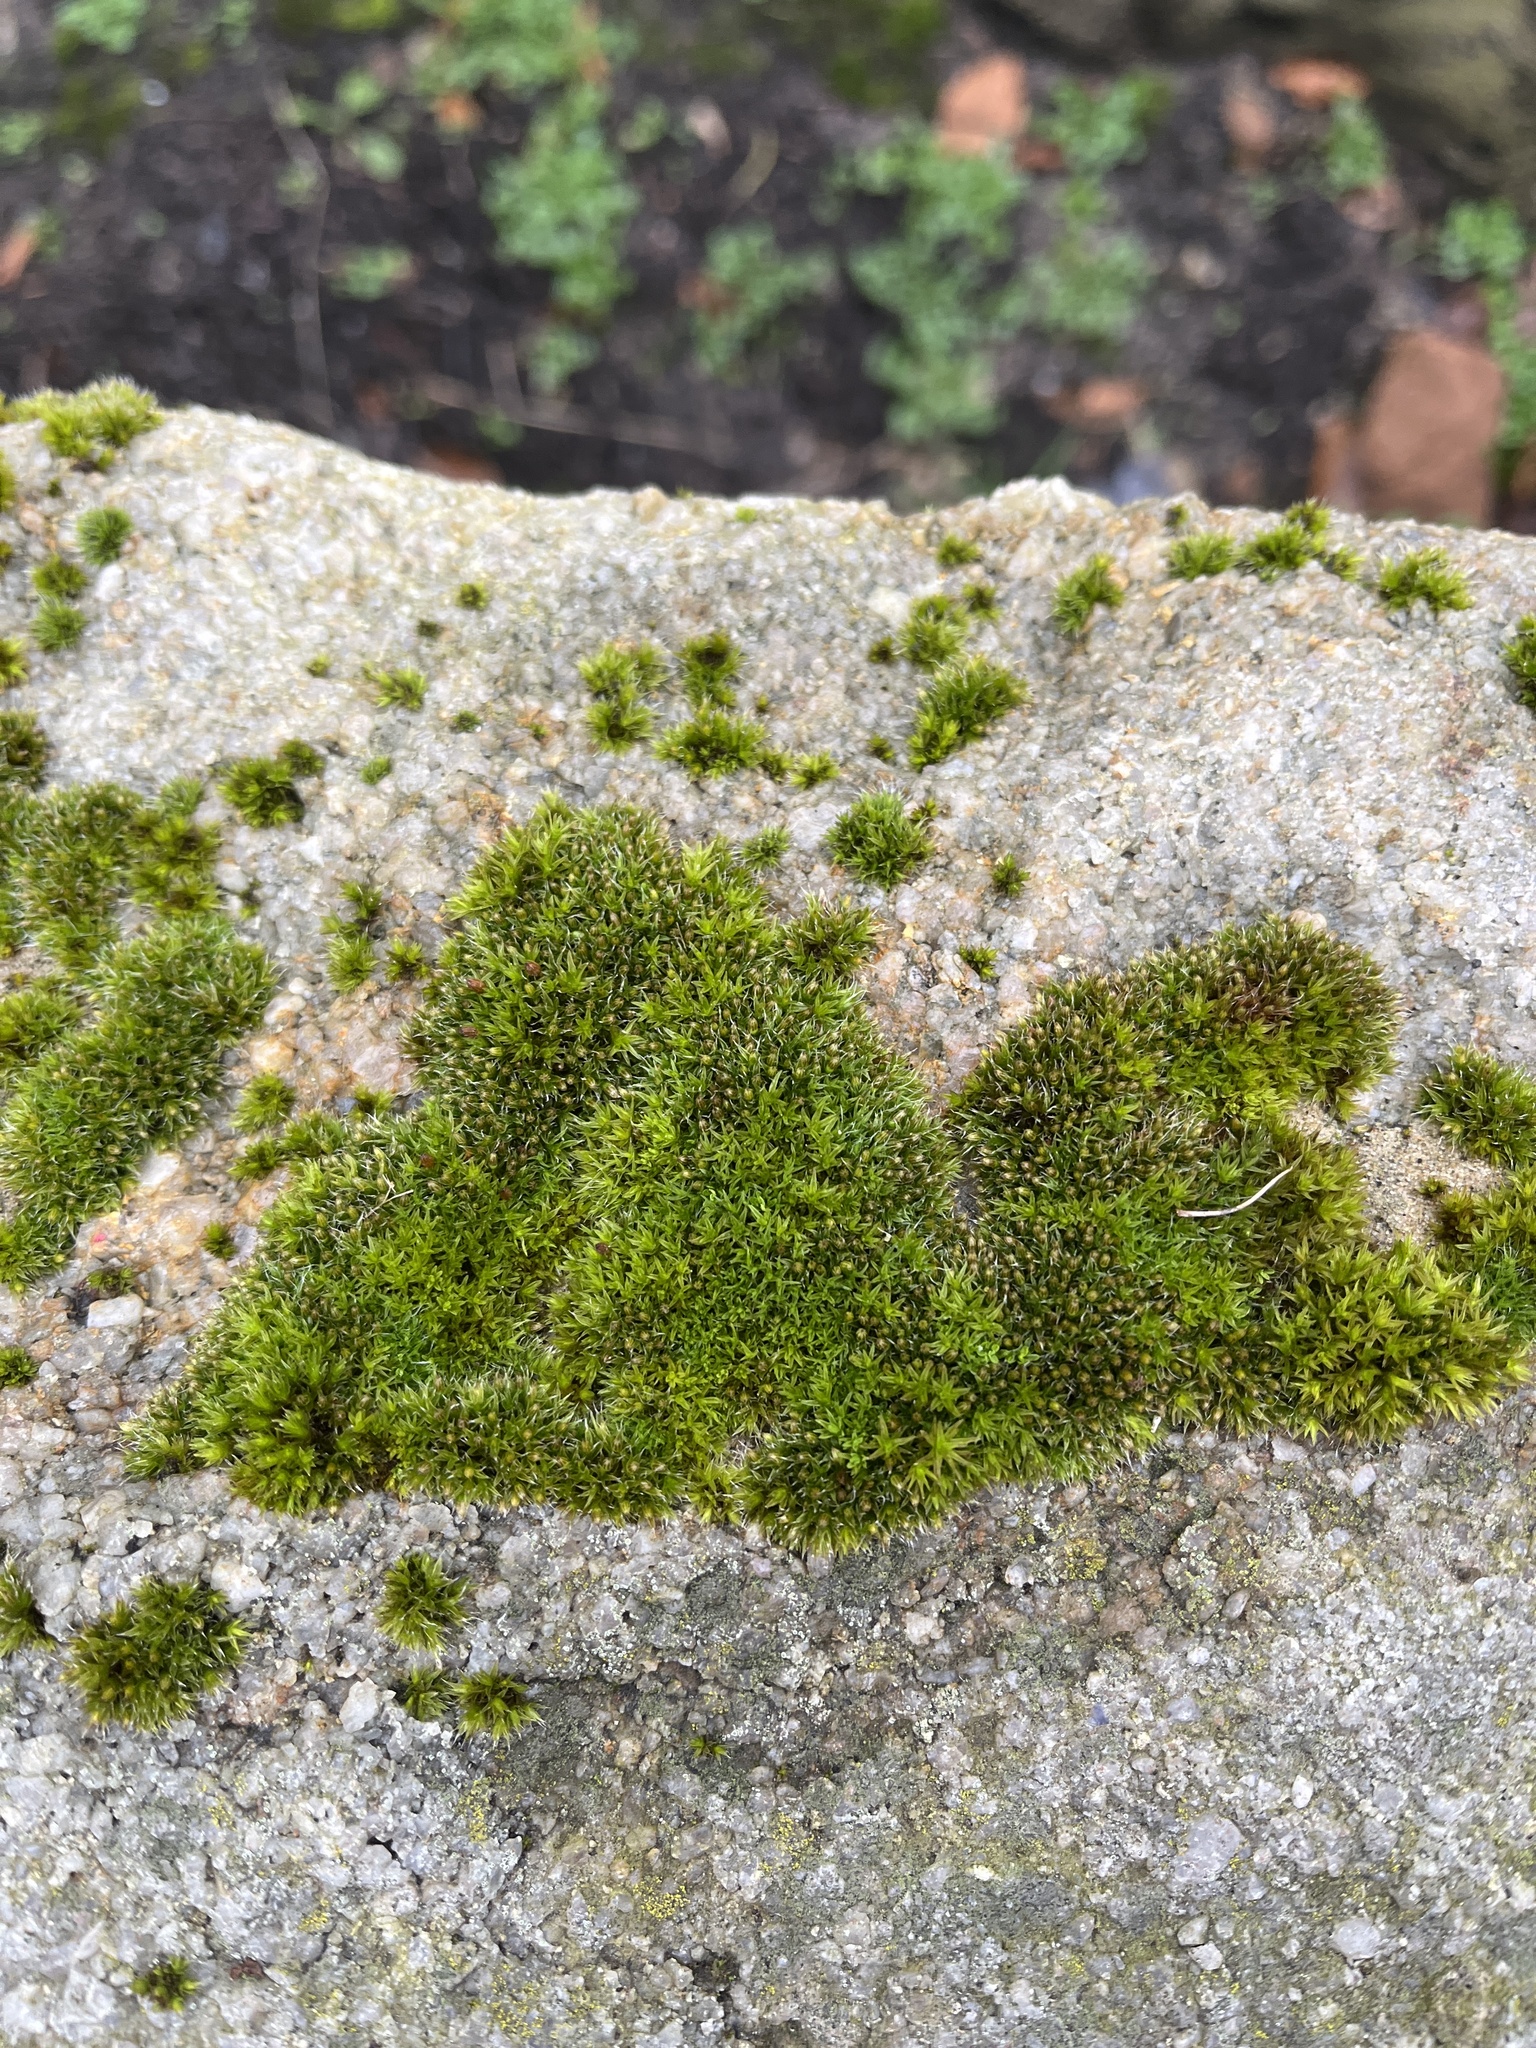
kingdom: Plantae
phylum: Bryophyta
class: Bryopsida
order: Orthotrichales
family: Orthotrichaceae
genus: Orthotrichum
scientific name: Orthotrichum diaphanum
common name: White-tipped bristle-moss
